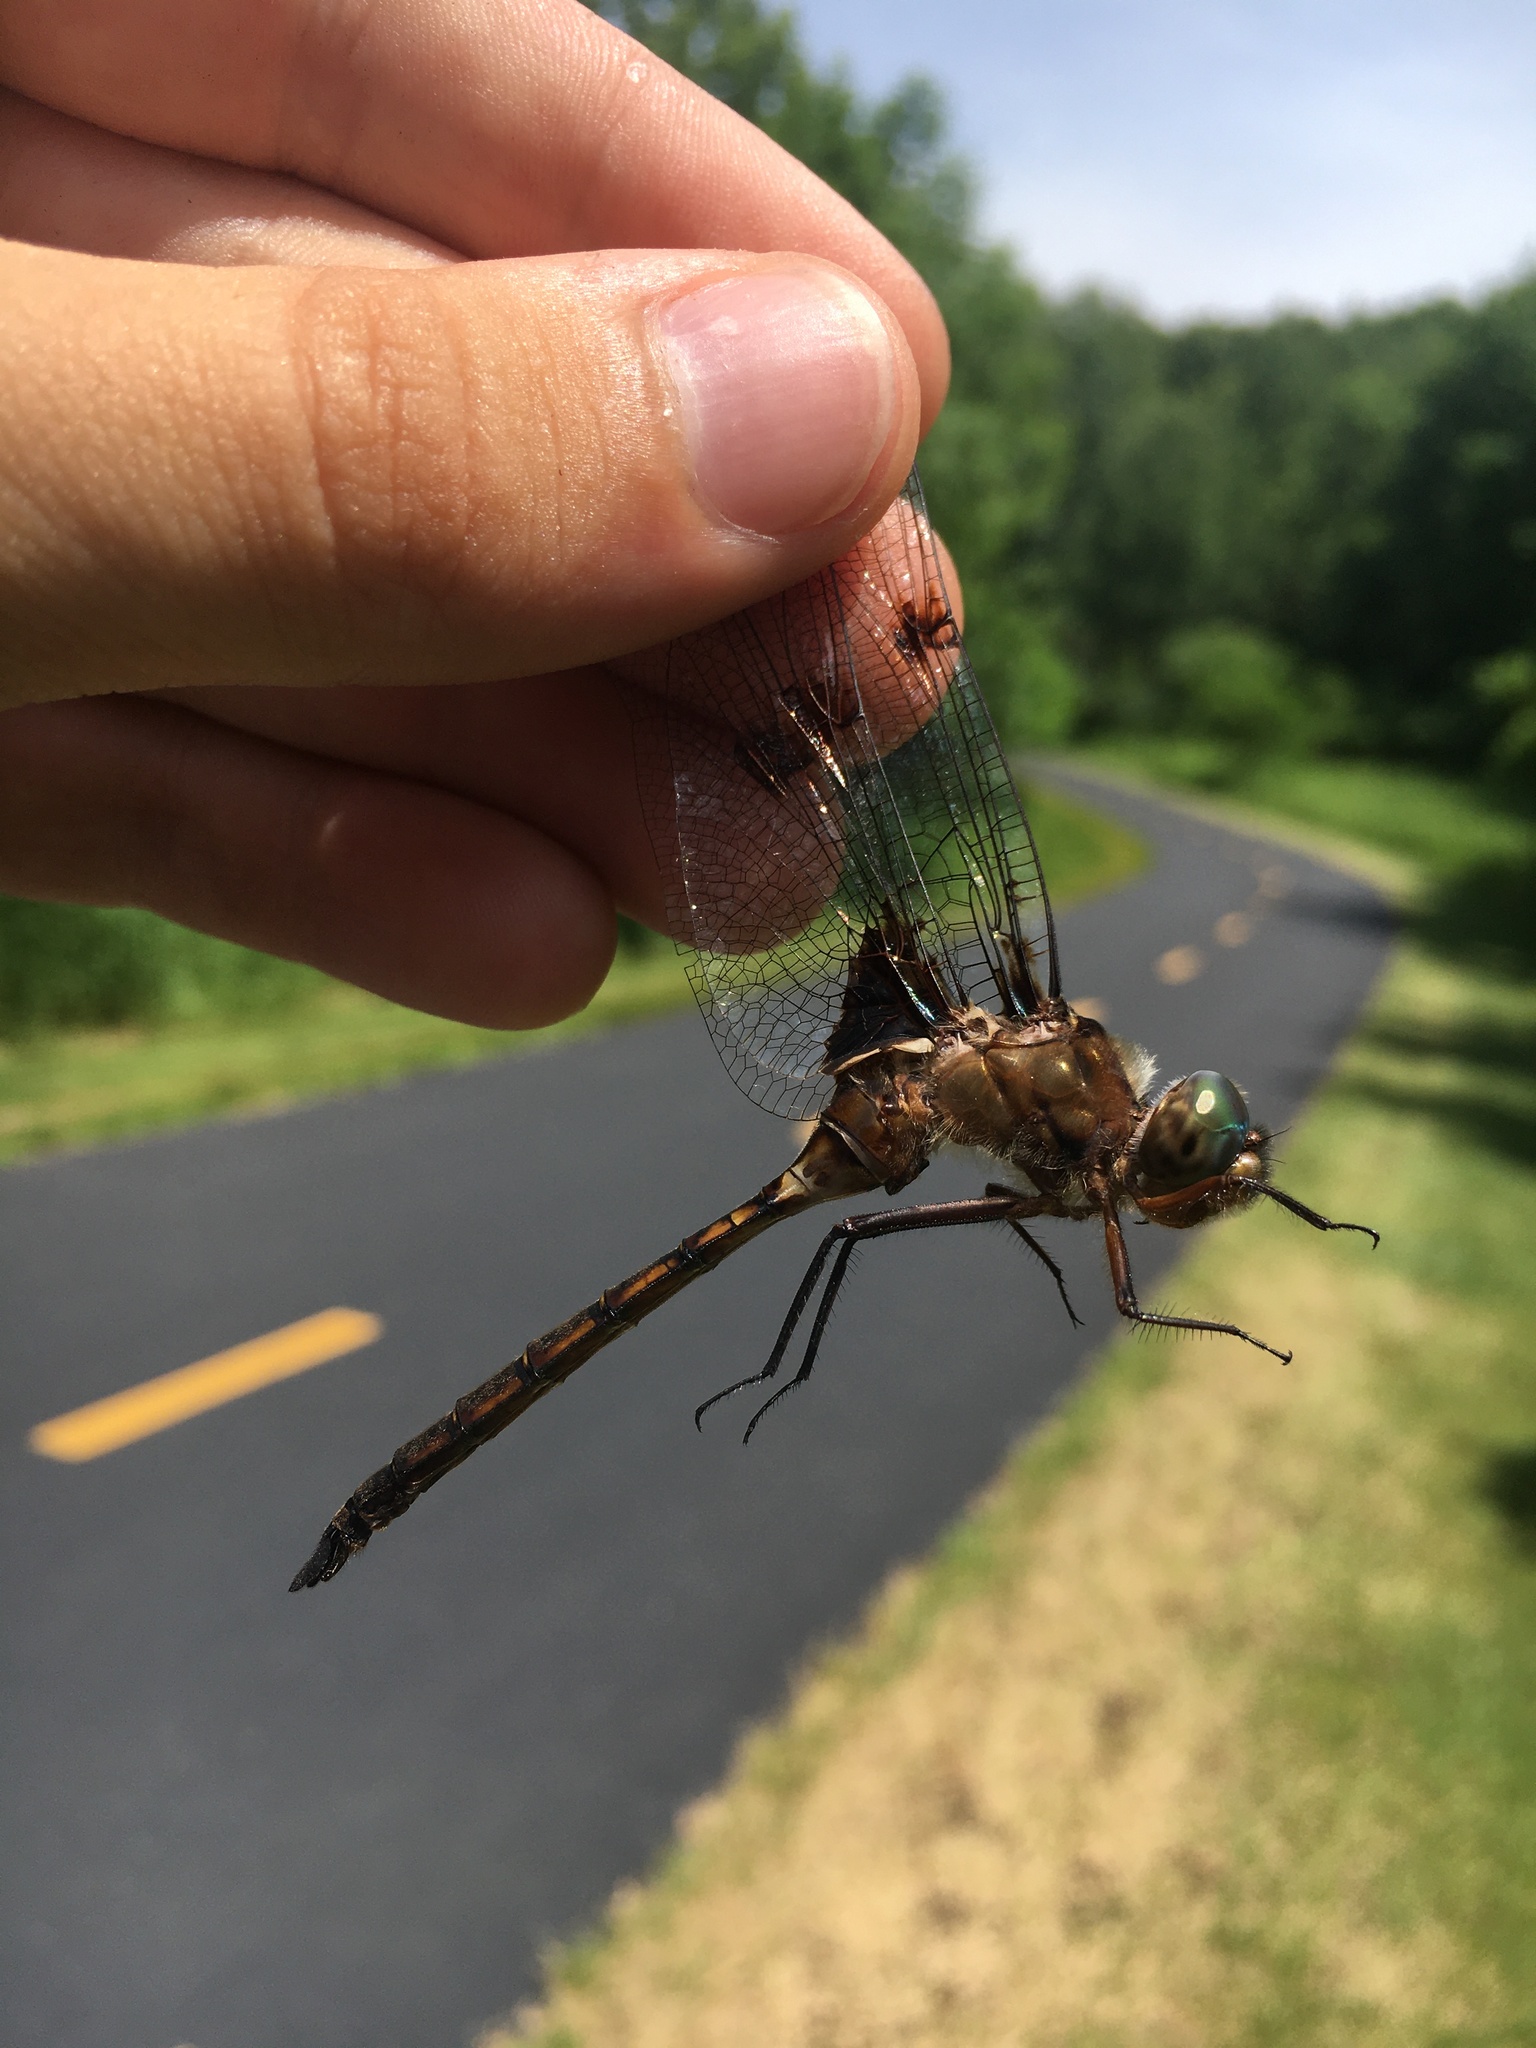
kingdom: Animalia
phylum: Arthropoda
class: Insecta
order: Odonata
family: Corduliidae
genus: Epitheca
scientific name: Epitheca princeps
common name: Prince baskettail
